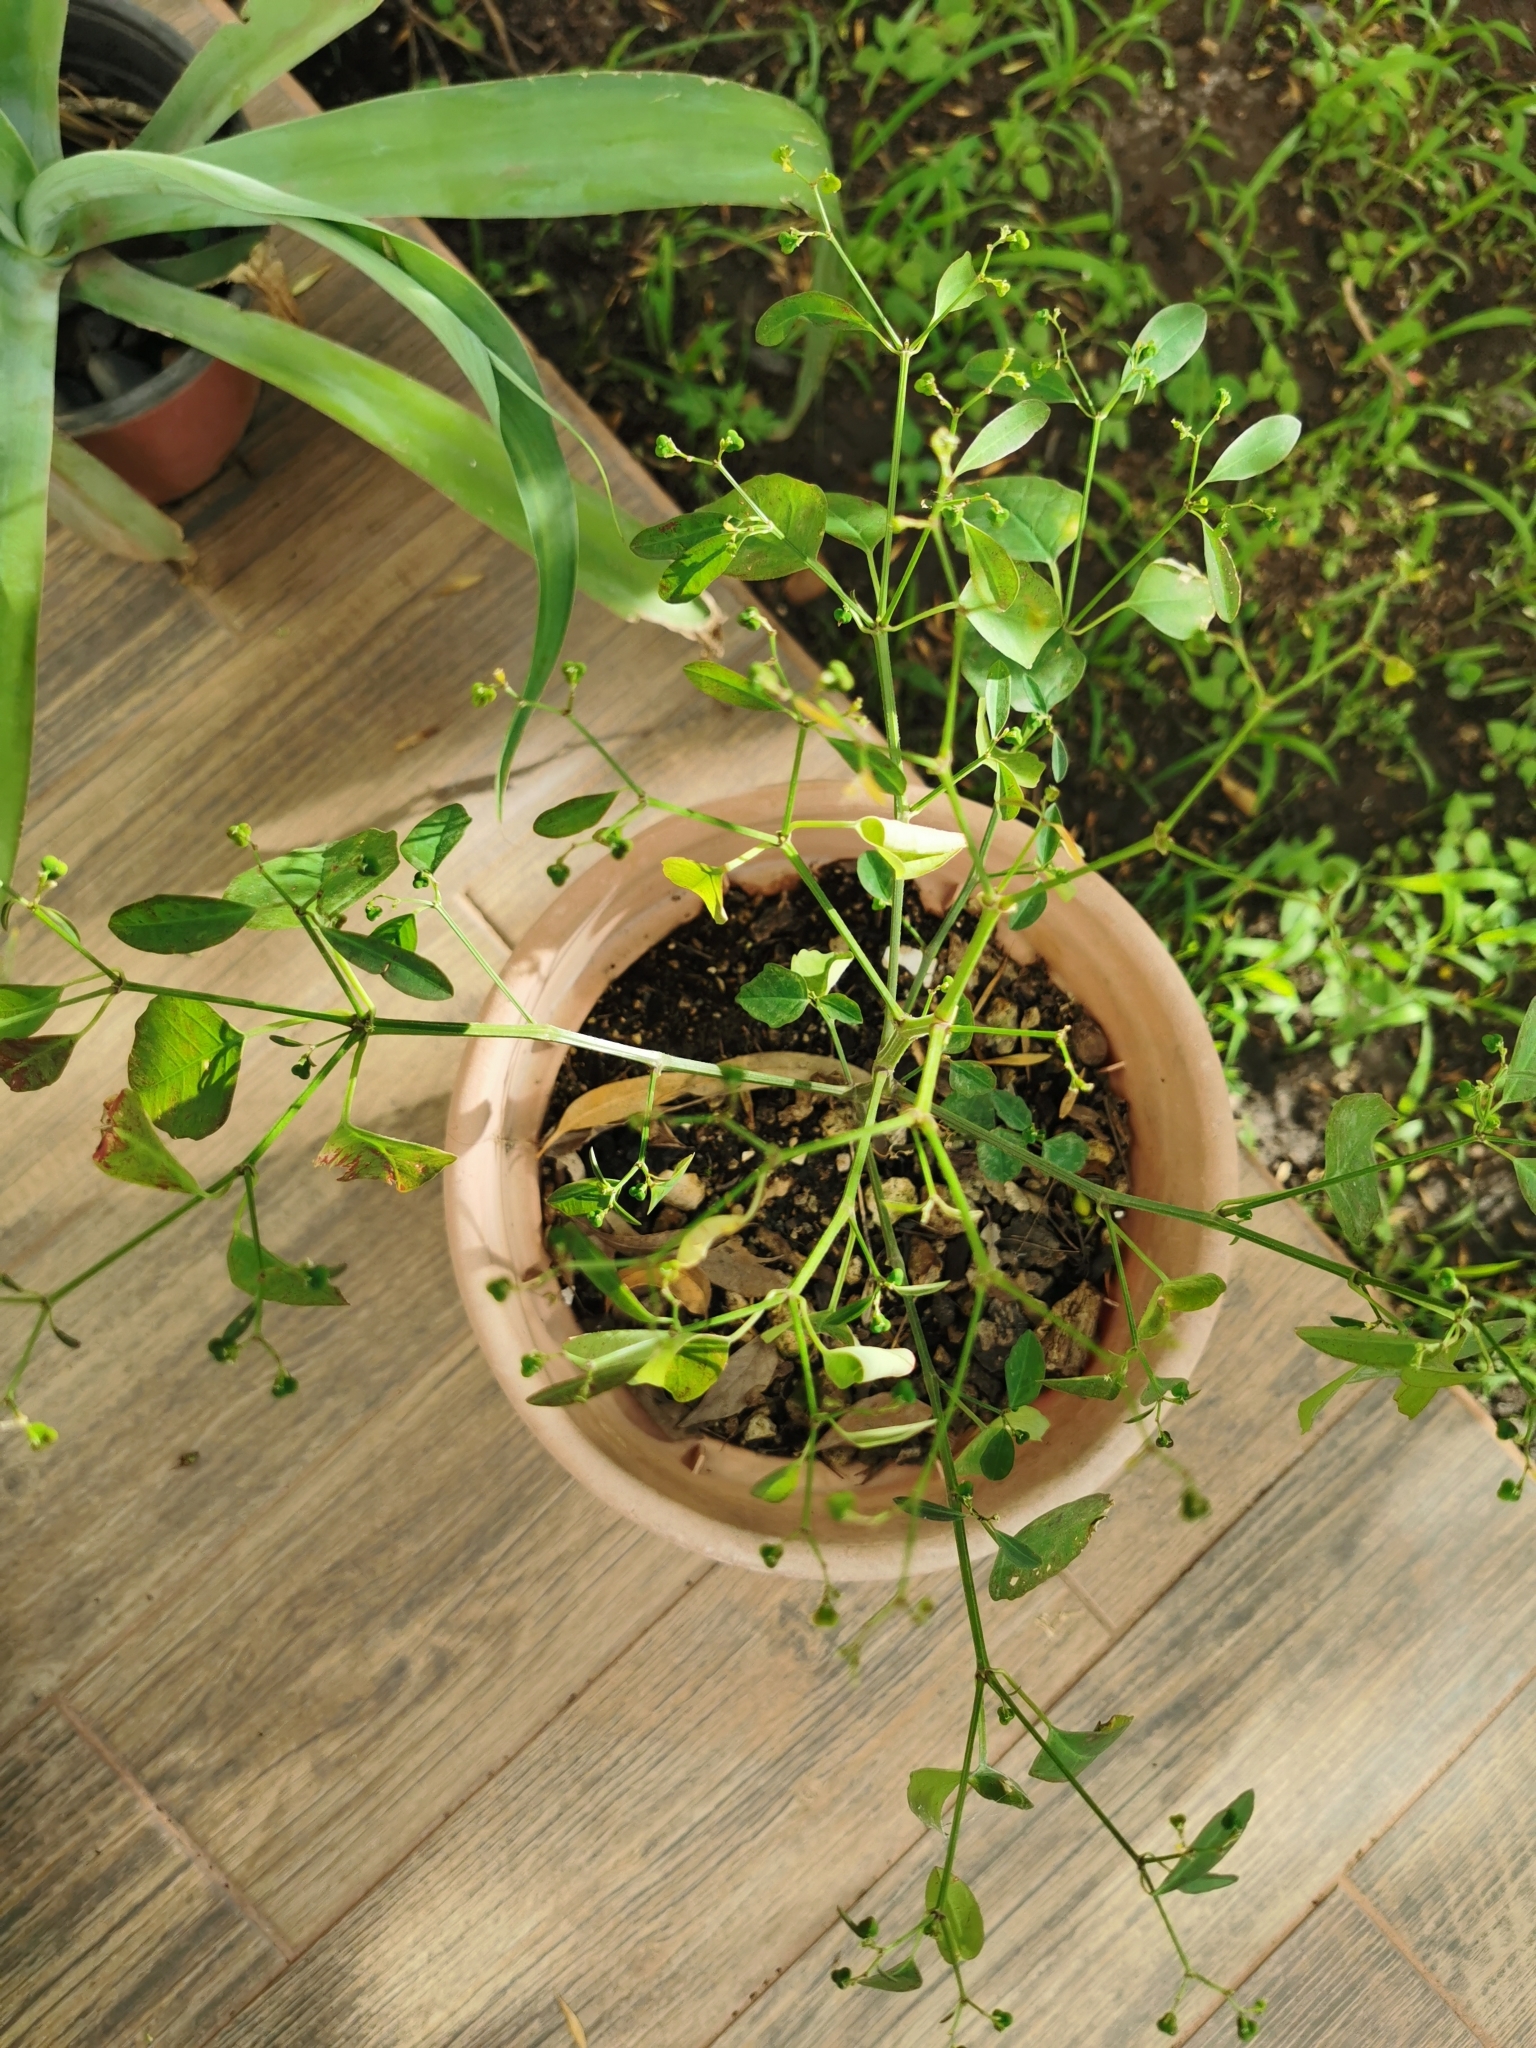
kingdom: Plantae
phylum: Tracheophyta
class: Magnoliopsida
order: Malpighiales
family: Euphorbiaceae
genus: Euphorbia
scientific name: Euphorbia graminea
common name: Grassleaf spurge
